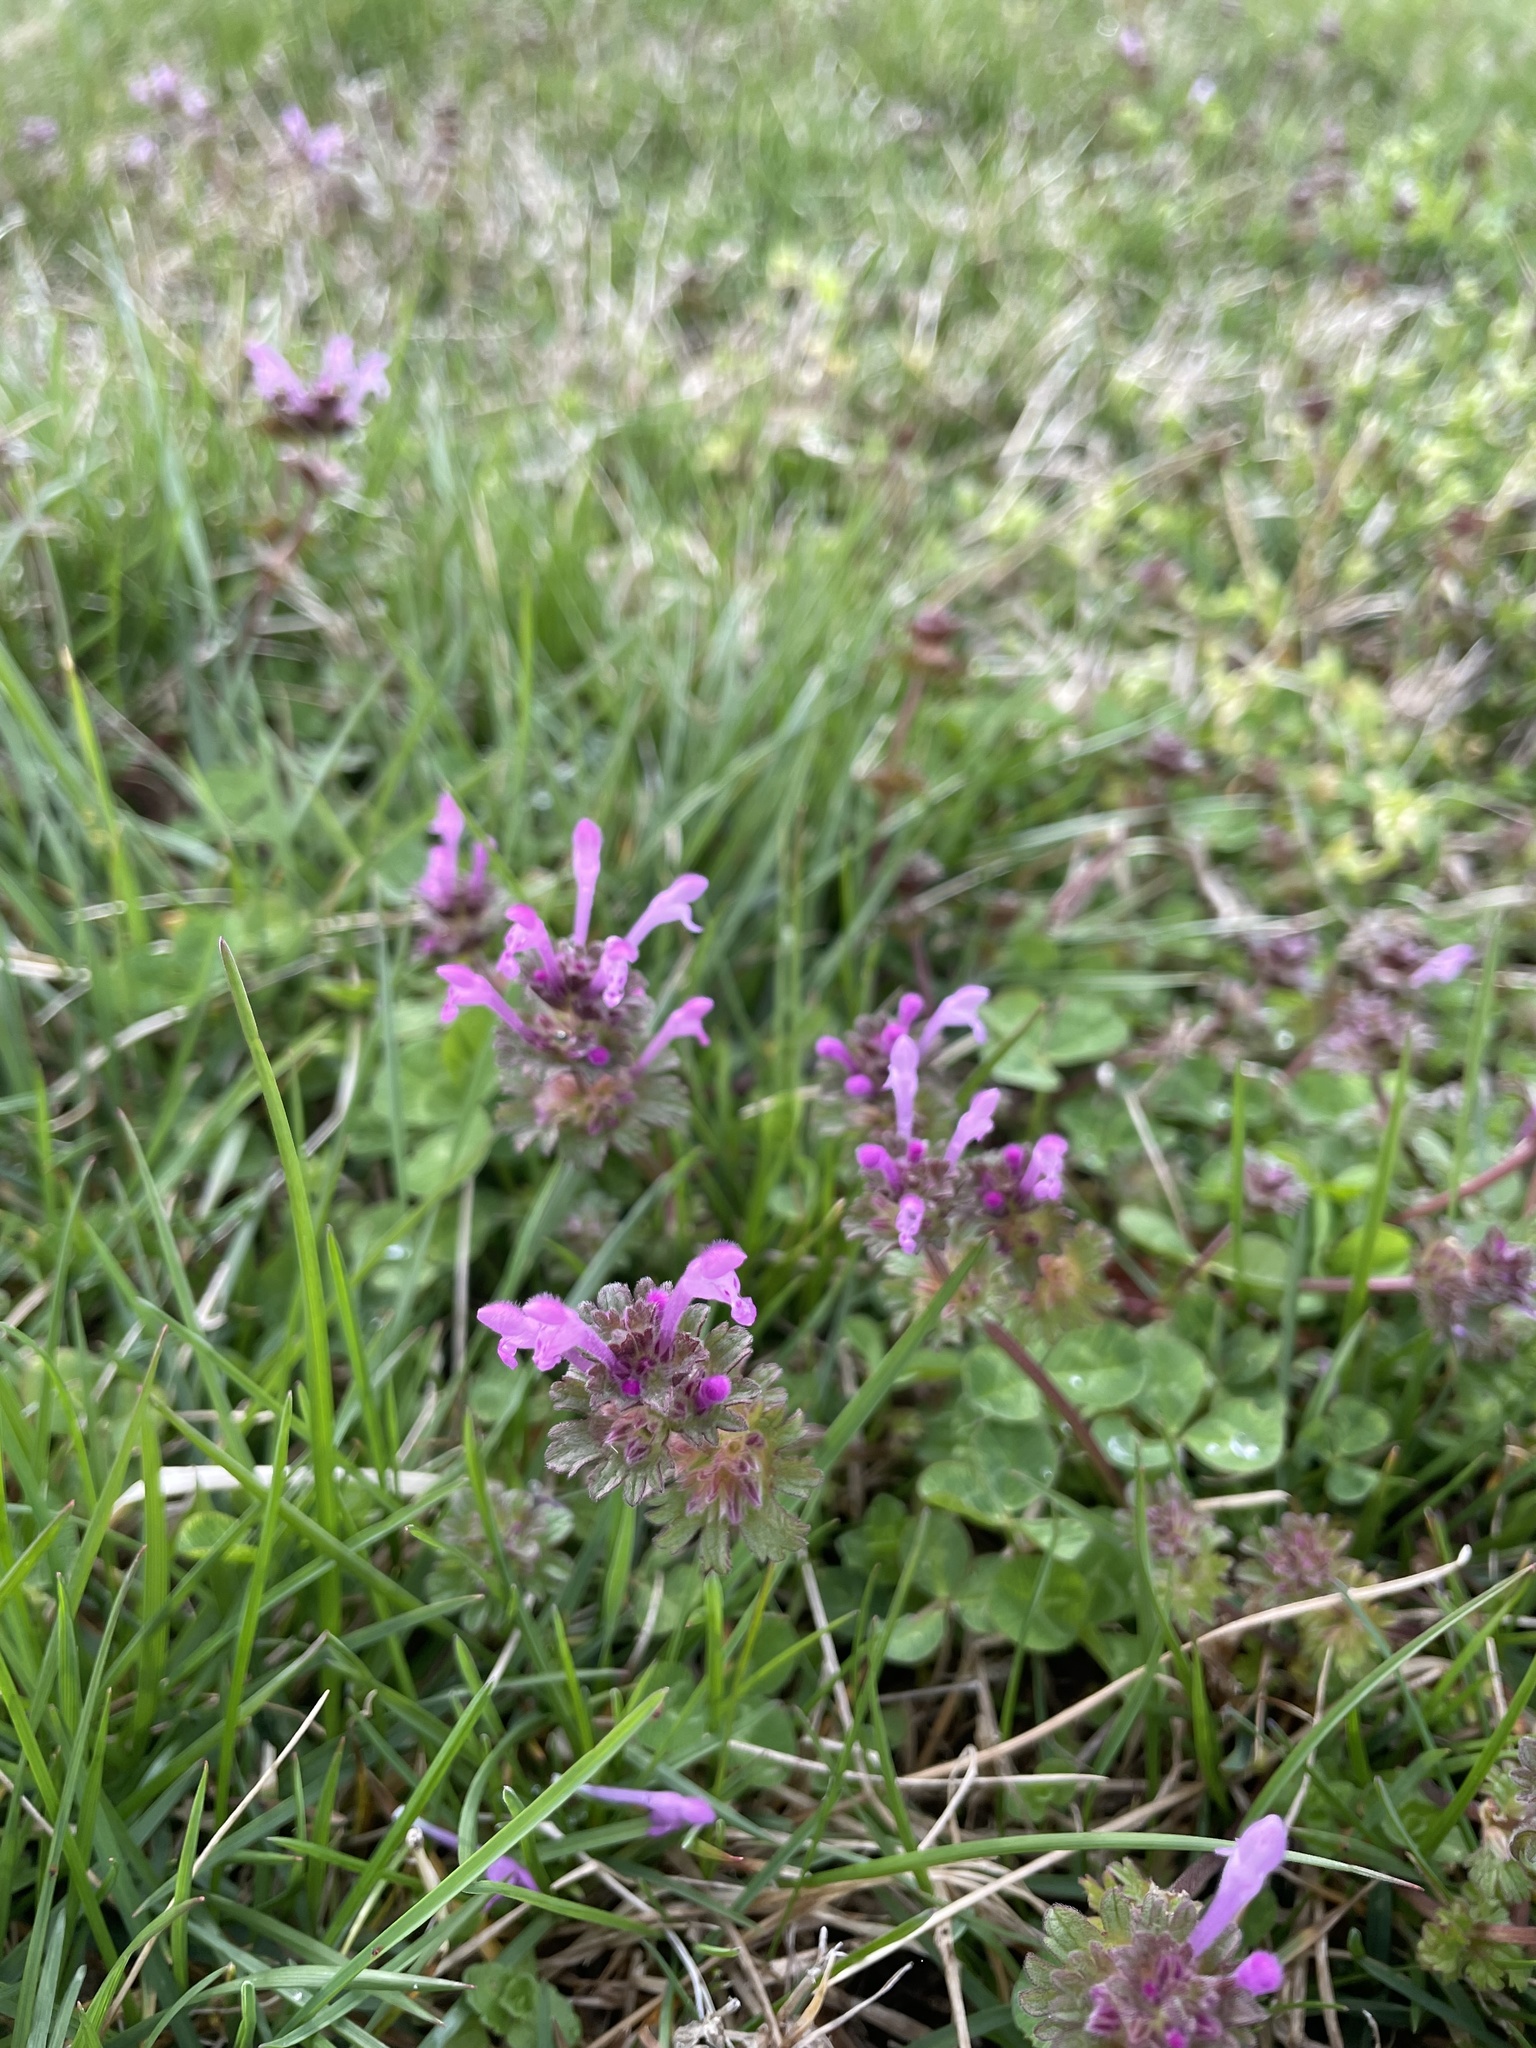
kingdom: Plantae
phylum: Tracheophyta
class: Magnoliopsida
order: Lamiales
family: Lamiaceae
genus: Lamium
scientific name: Lamium amplexicaule
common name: Henbit dead-nettle
